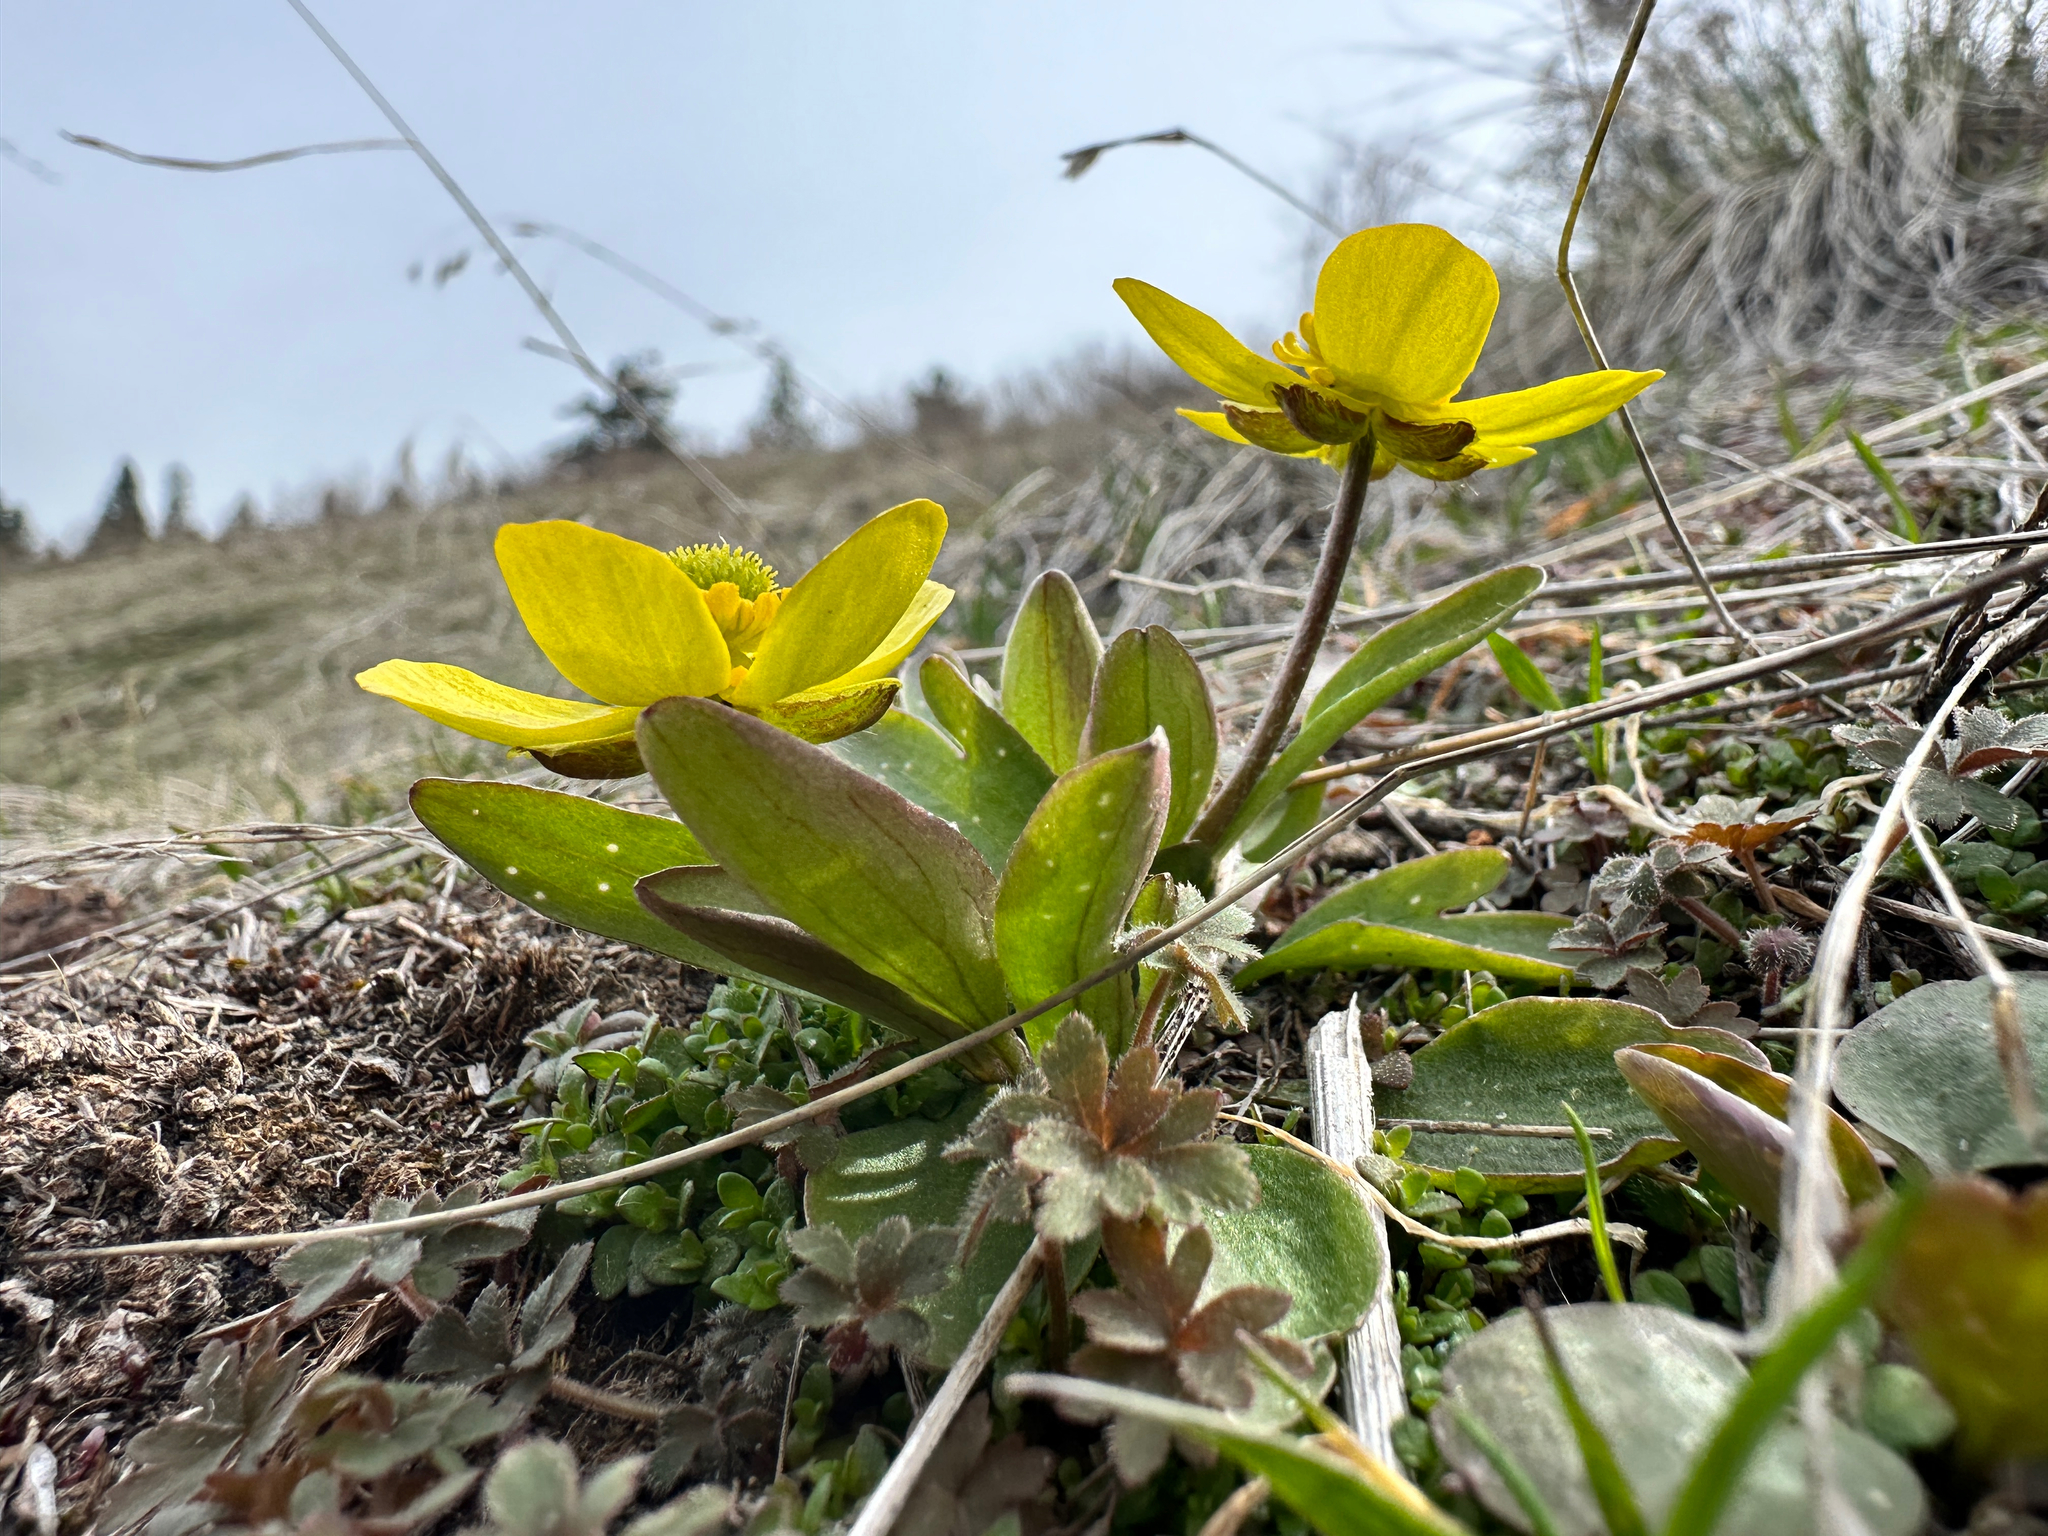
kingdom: Plantae
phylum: Tracheophyta
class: Magnoliopsida
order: Ranunculales
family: Ranunculaceae
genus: Ranunculus
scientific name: Ranunculus glaberrimus
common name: Sagebrush buttercup
